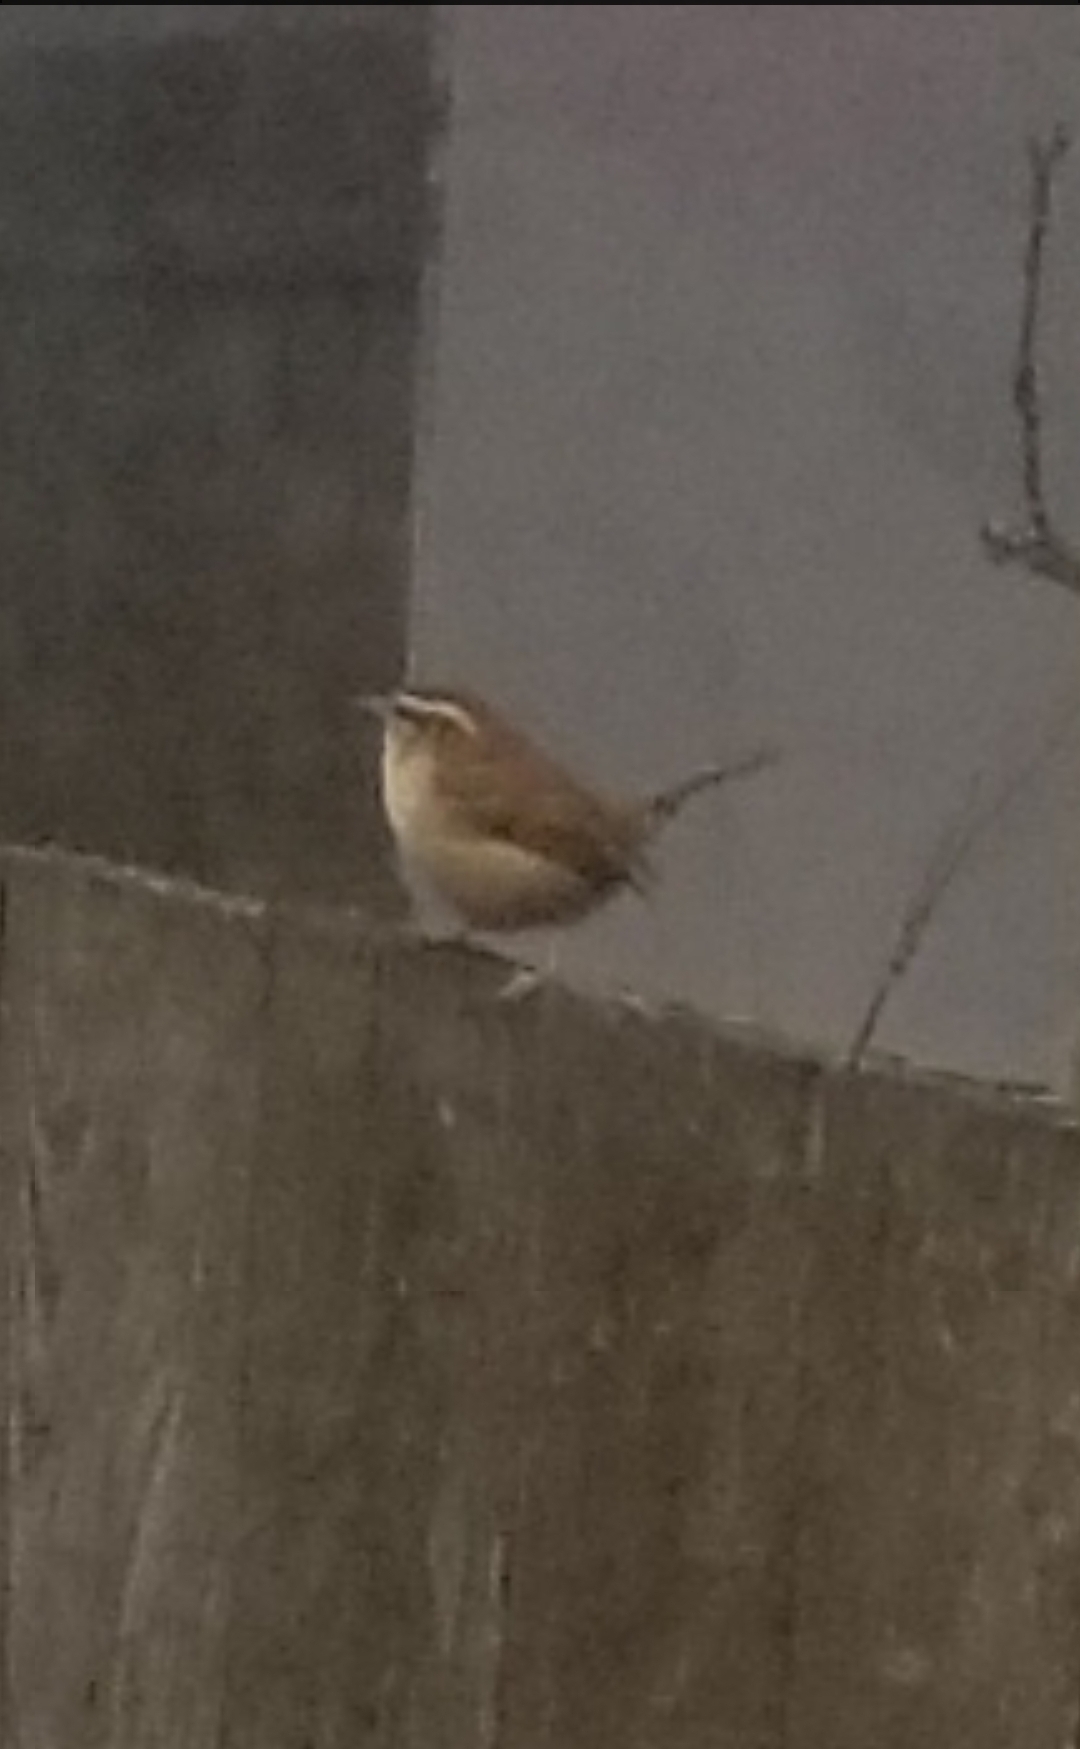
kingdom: Animalia
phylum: Chordata
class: Aves
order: Passeriformes
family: Troglodytidae
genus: Thryothorus
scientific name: Thryothorus ludovicianus
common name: Carolina wren
